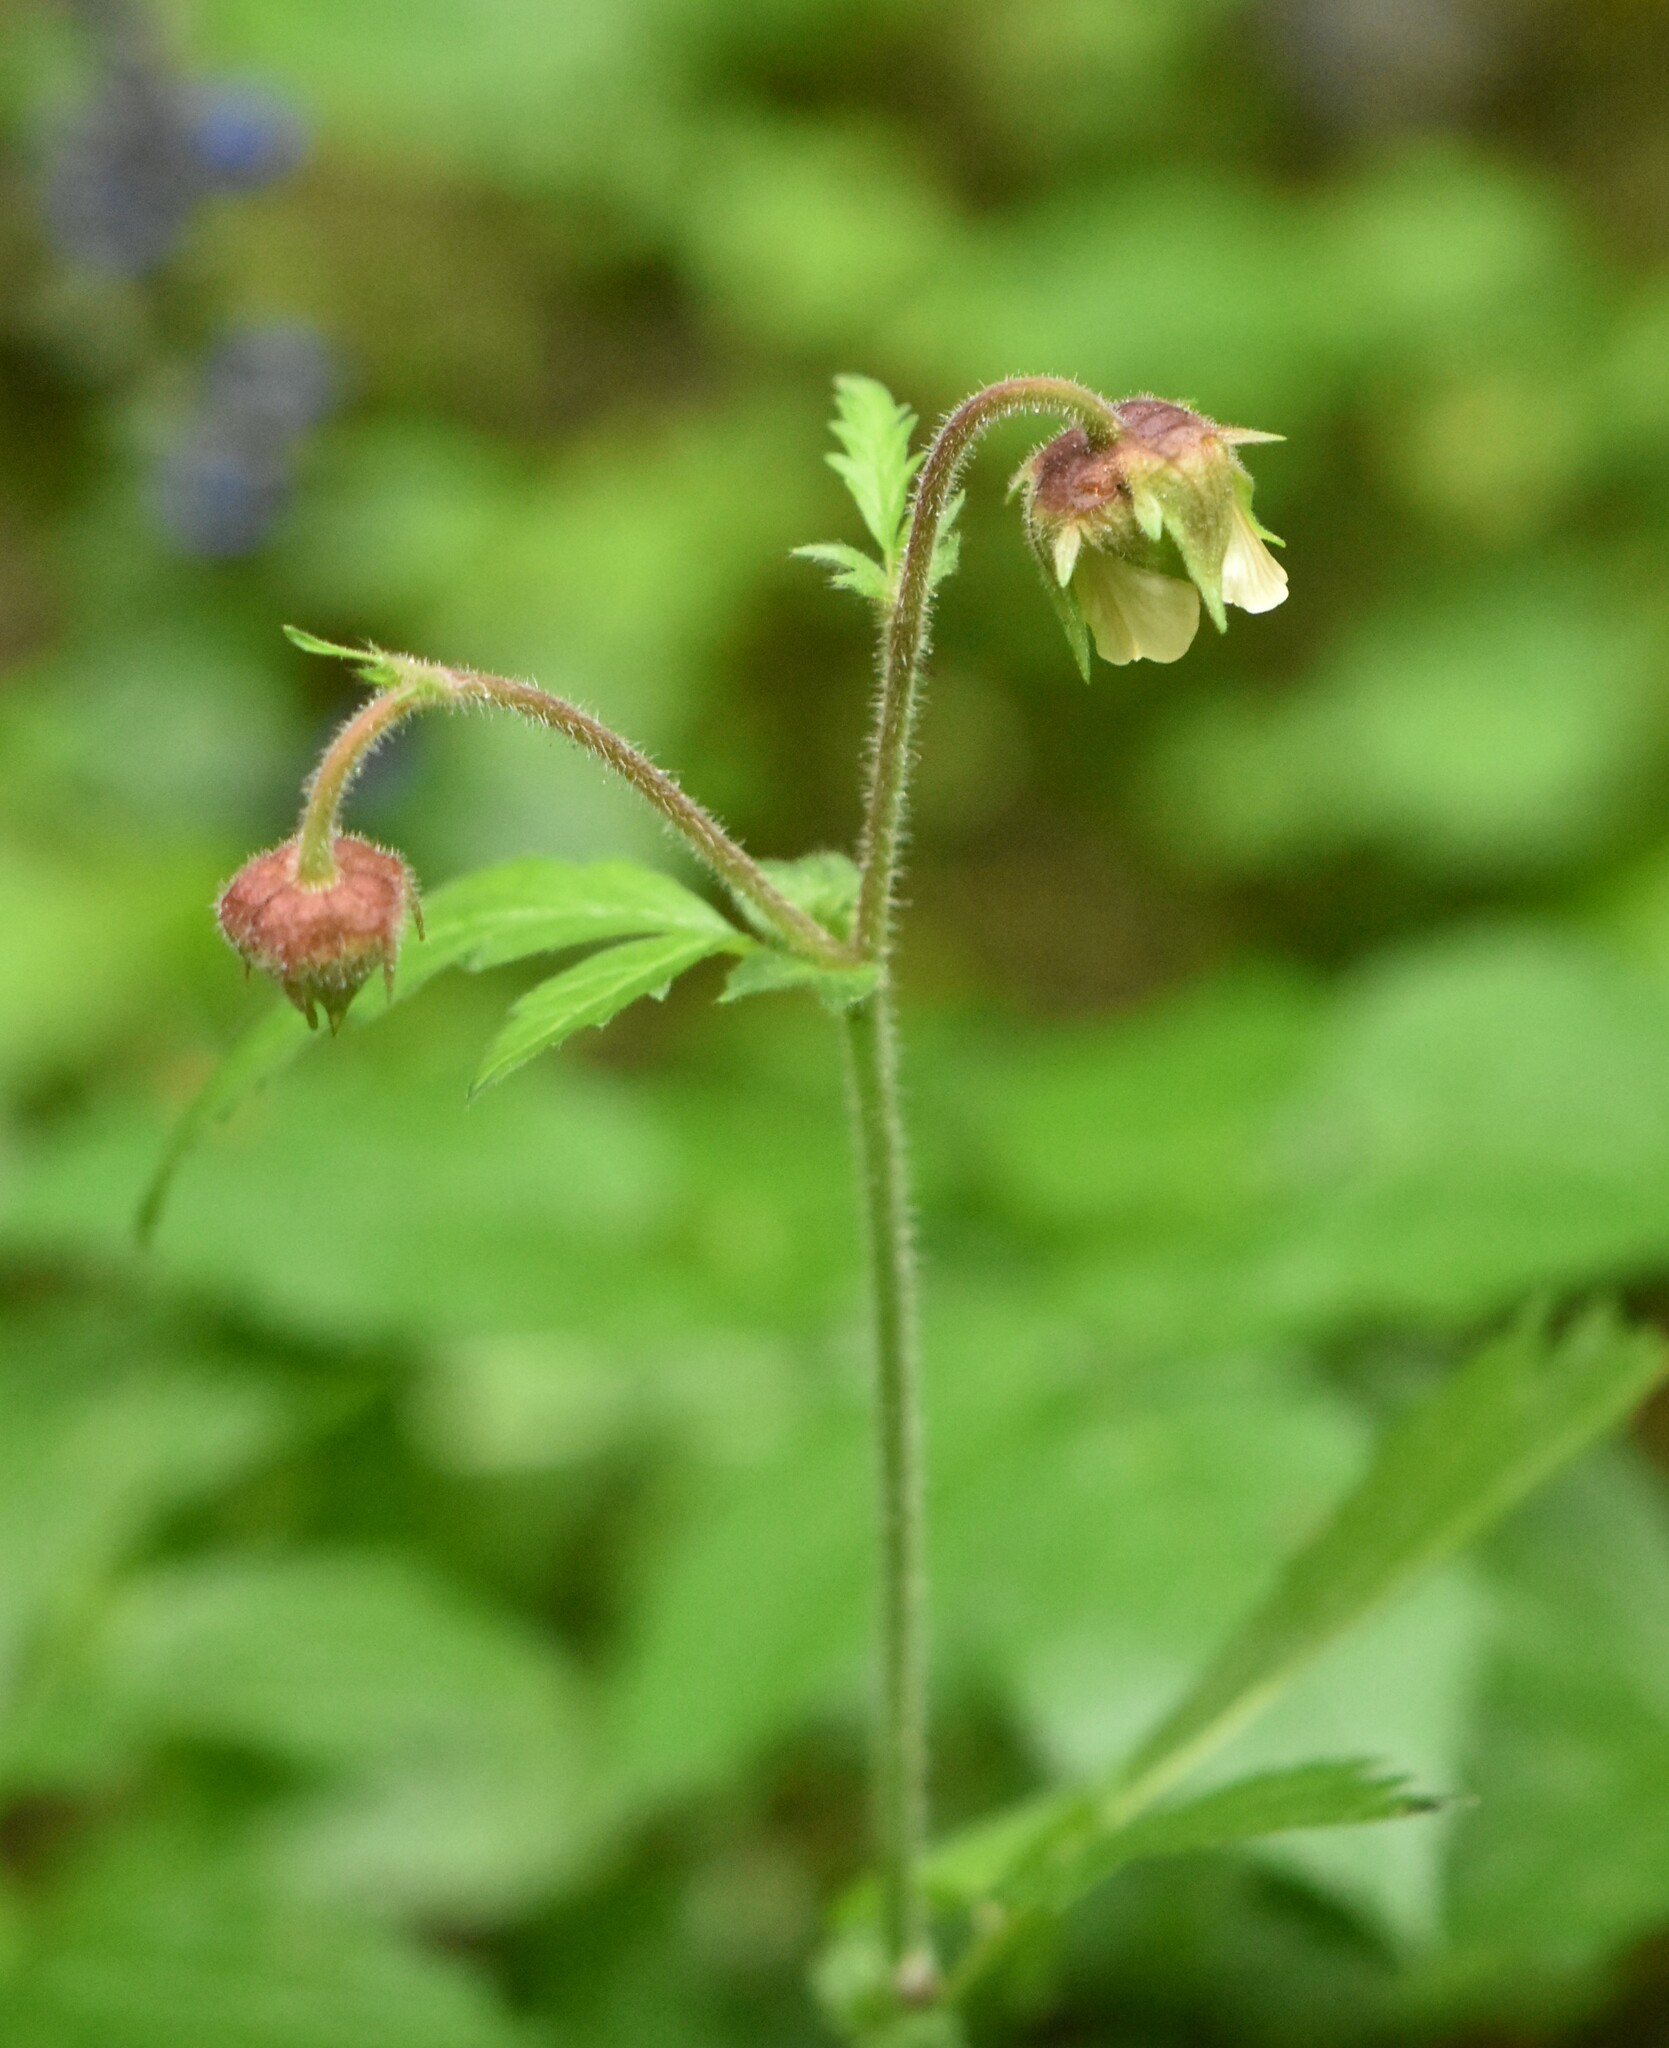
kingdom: Plantae
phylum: Tracheophyta
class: Magnoliopsida
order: Rosales
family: Rosaceae
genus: Geum
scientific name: Geum rivale
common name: Water avens
